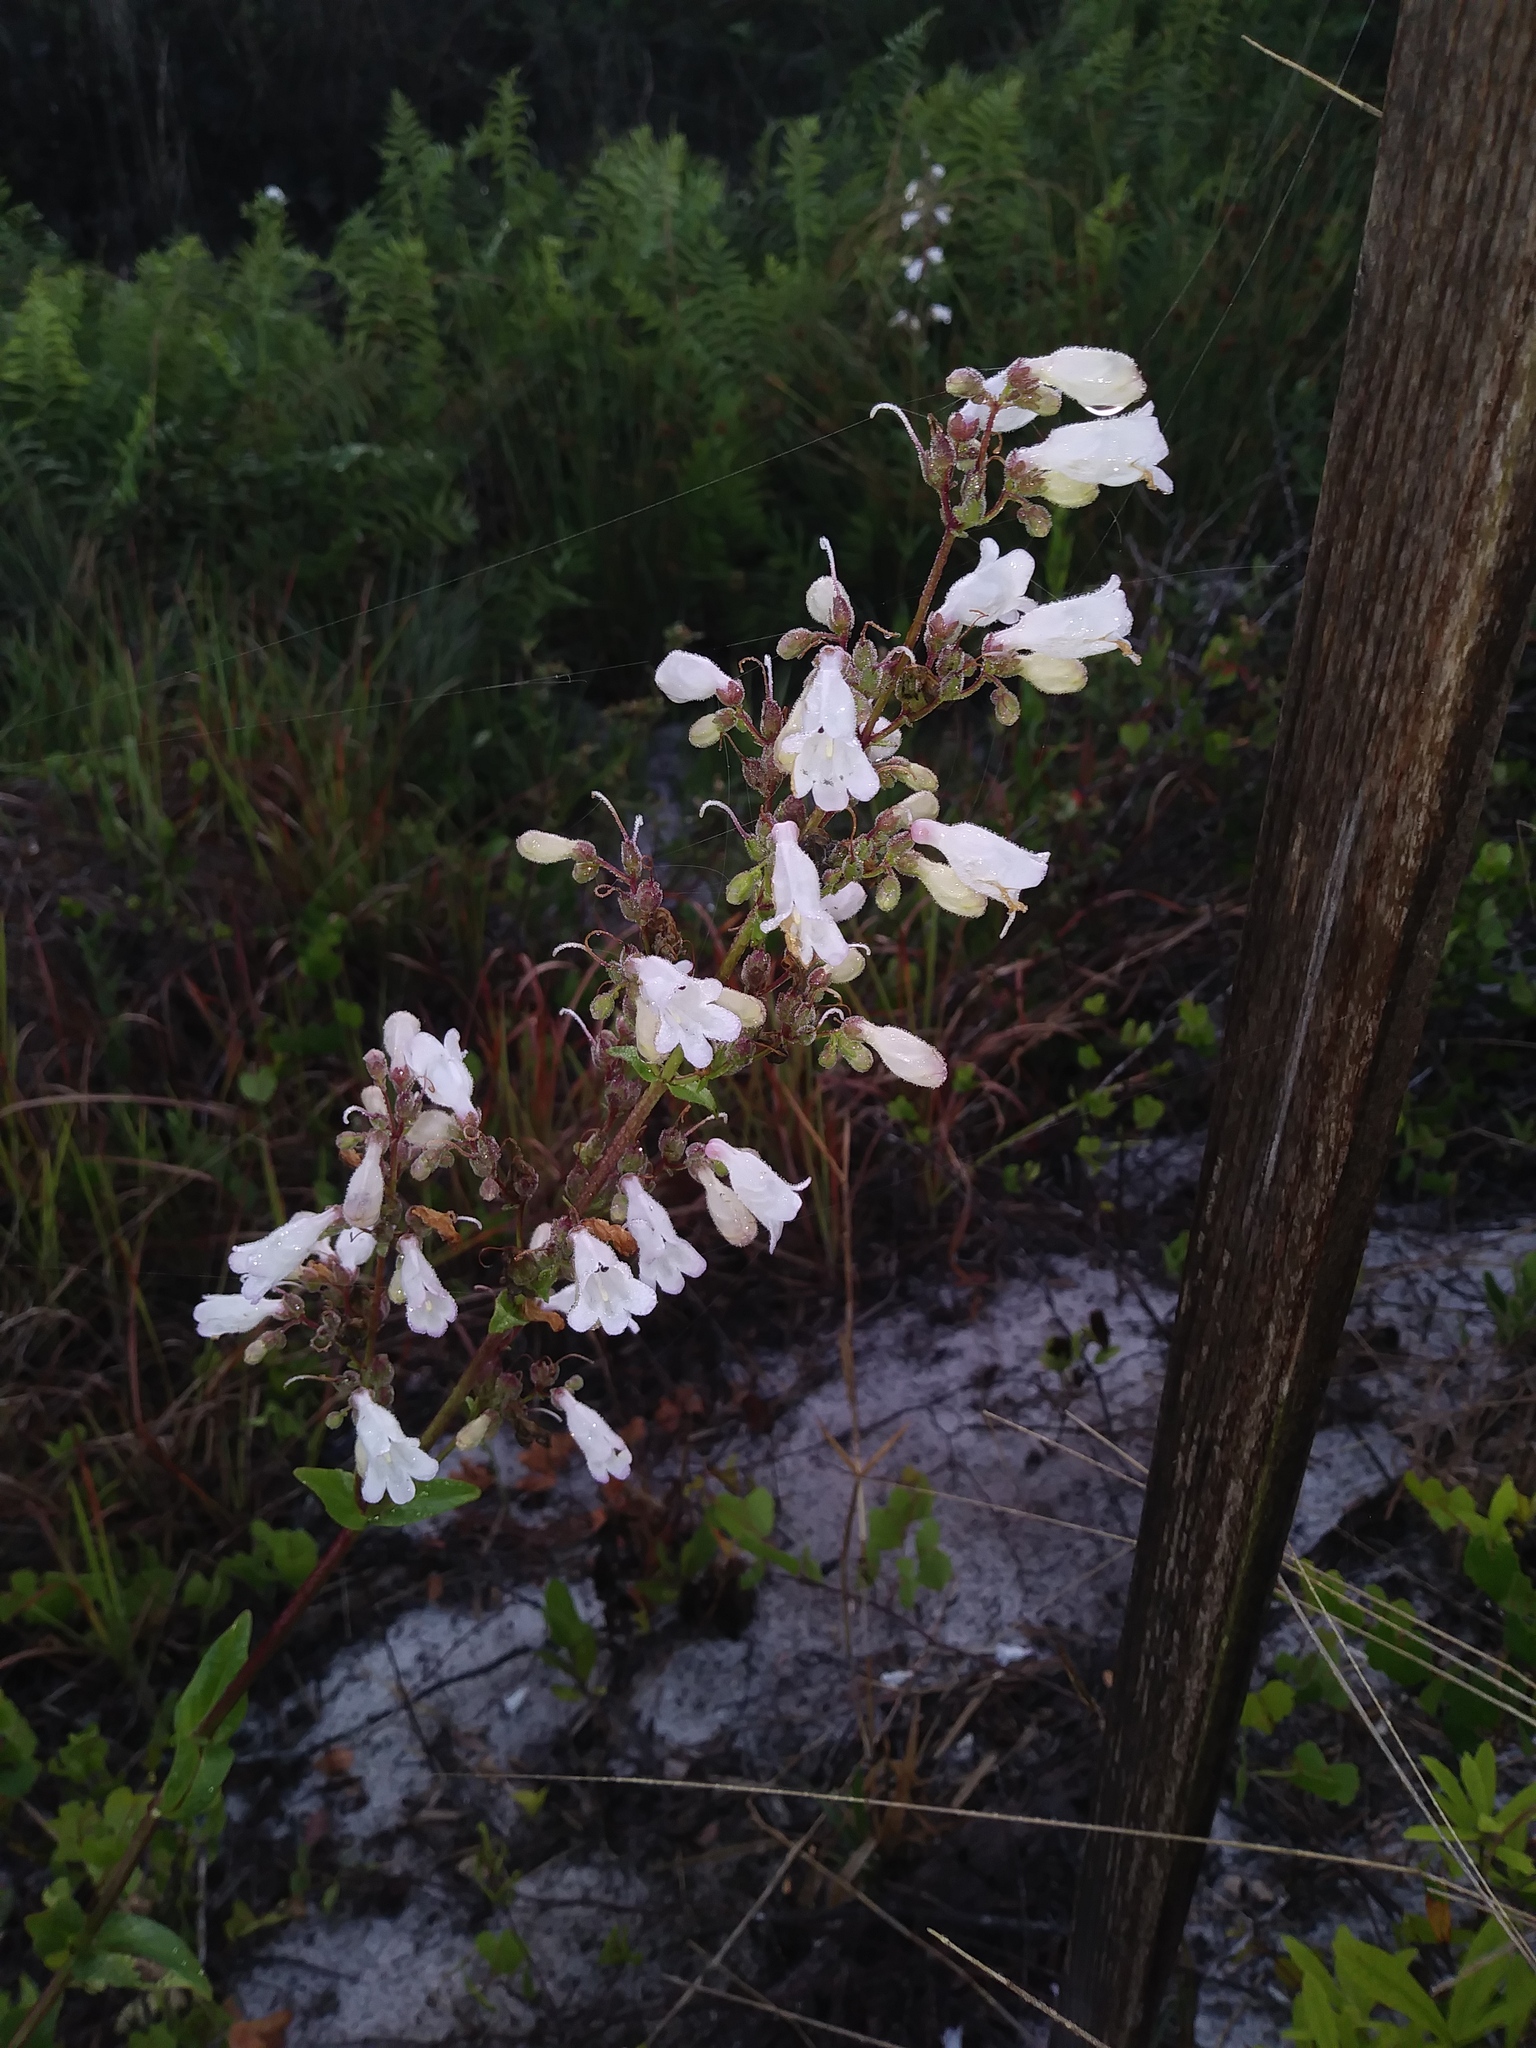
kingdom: Plantae
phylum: Tracheophyta
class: Magnoliopsida
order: Lamiales
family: Plantaginaceae
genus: Penstemon
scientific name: Penstemon multiflorus
